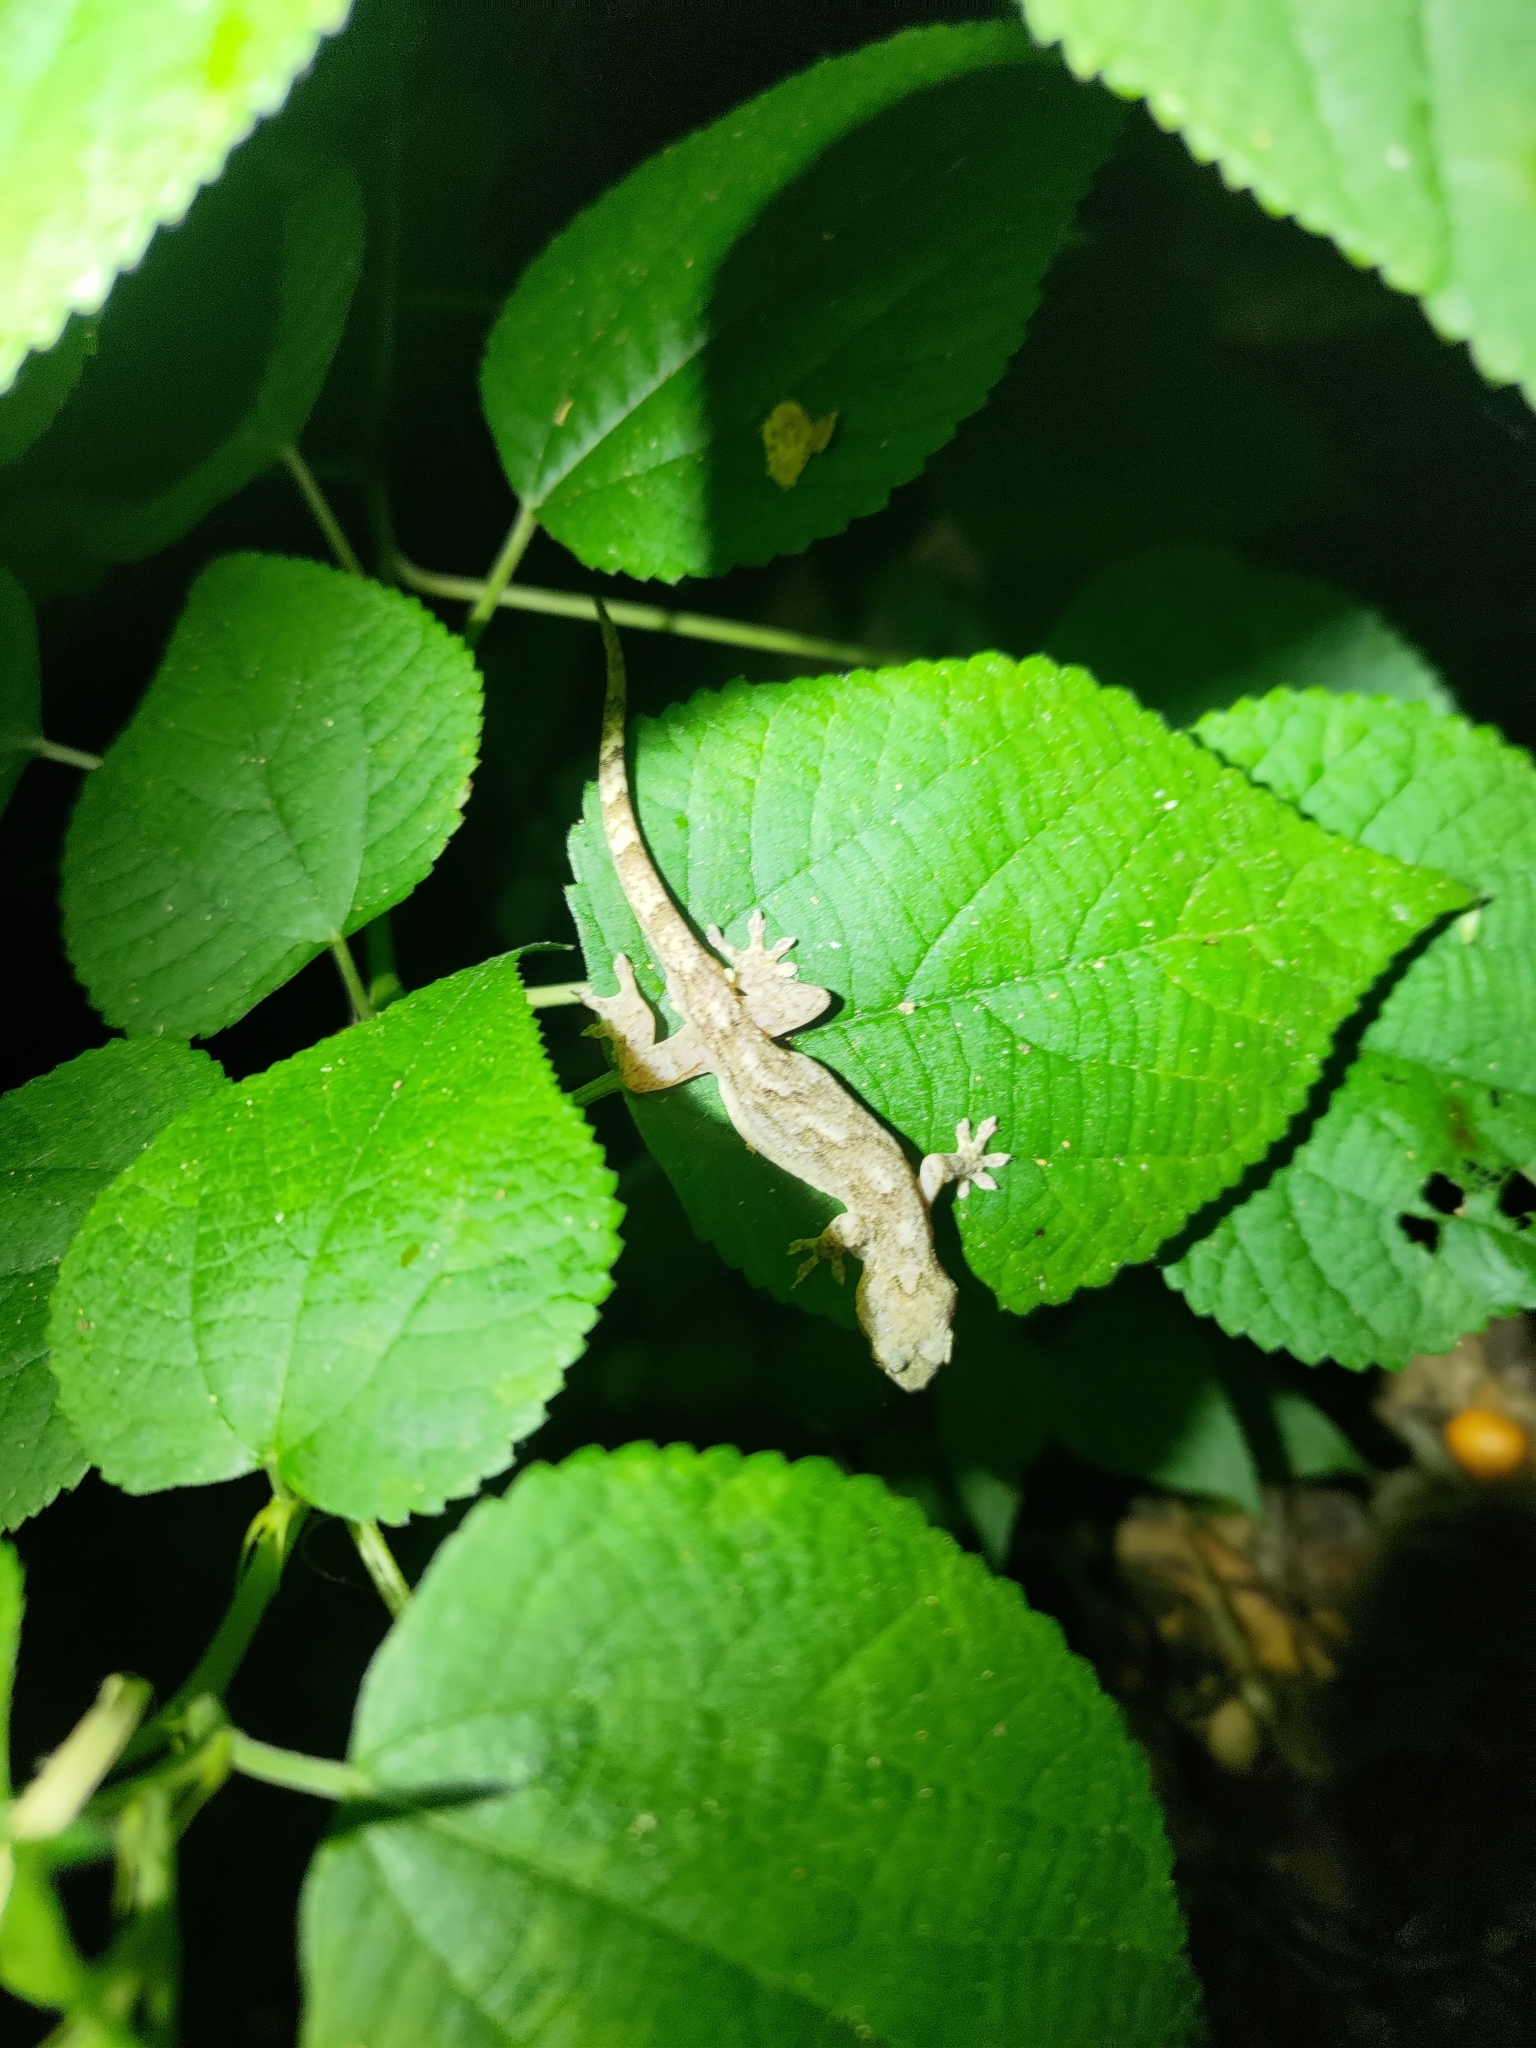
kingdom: Animalia
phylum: Chordata
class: Squamata
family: Gekkonidae
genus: Gekko
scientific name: Gekko hokouensis
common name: Kwangsi gecko
